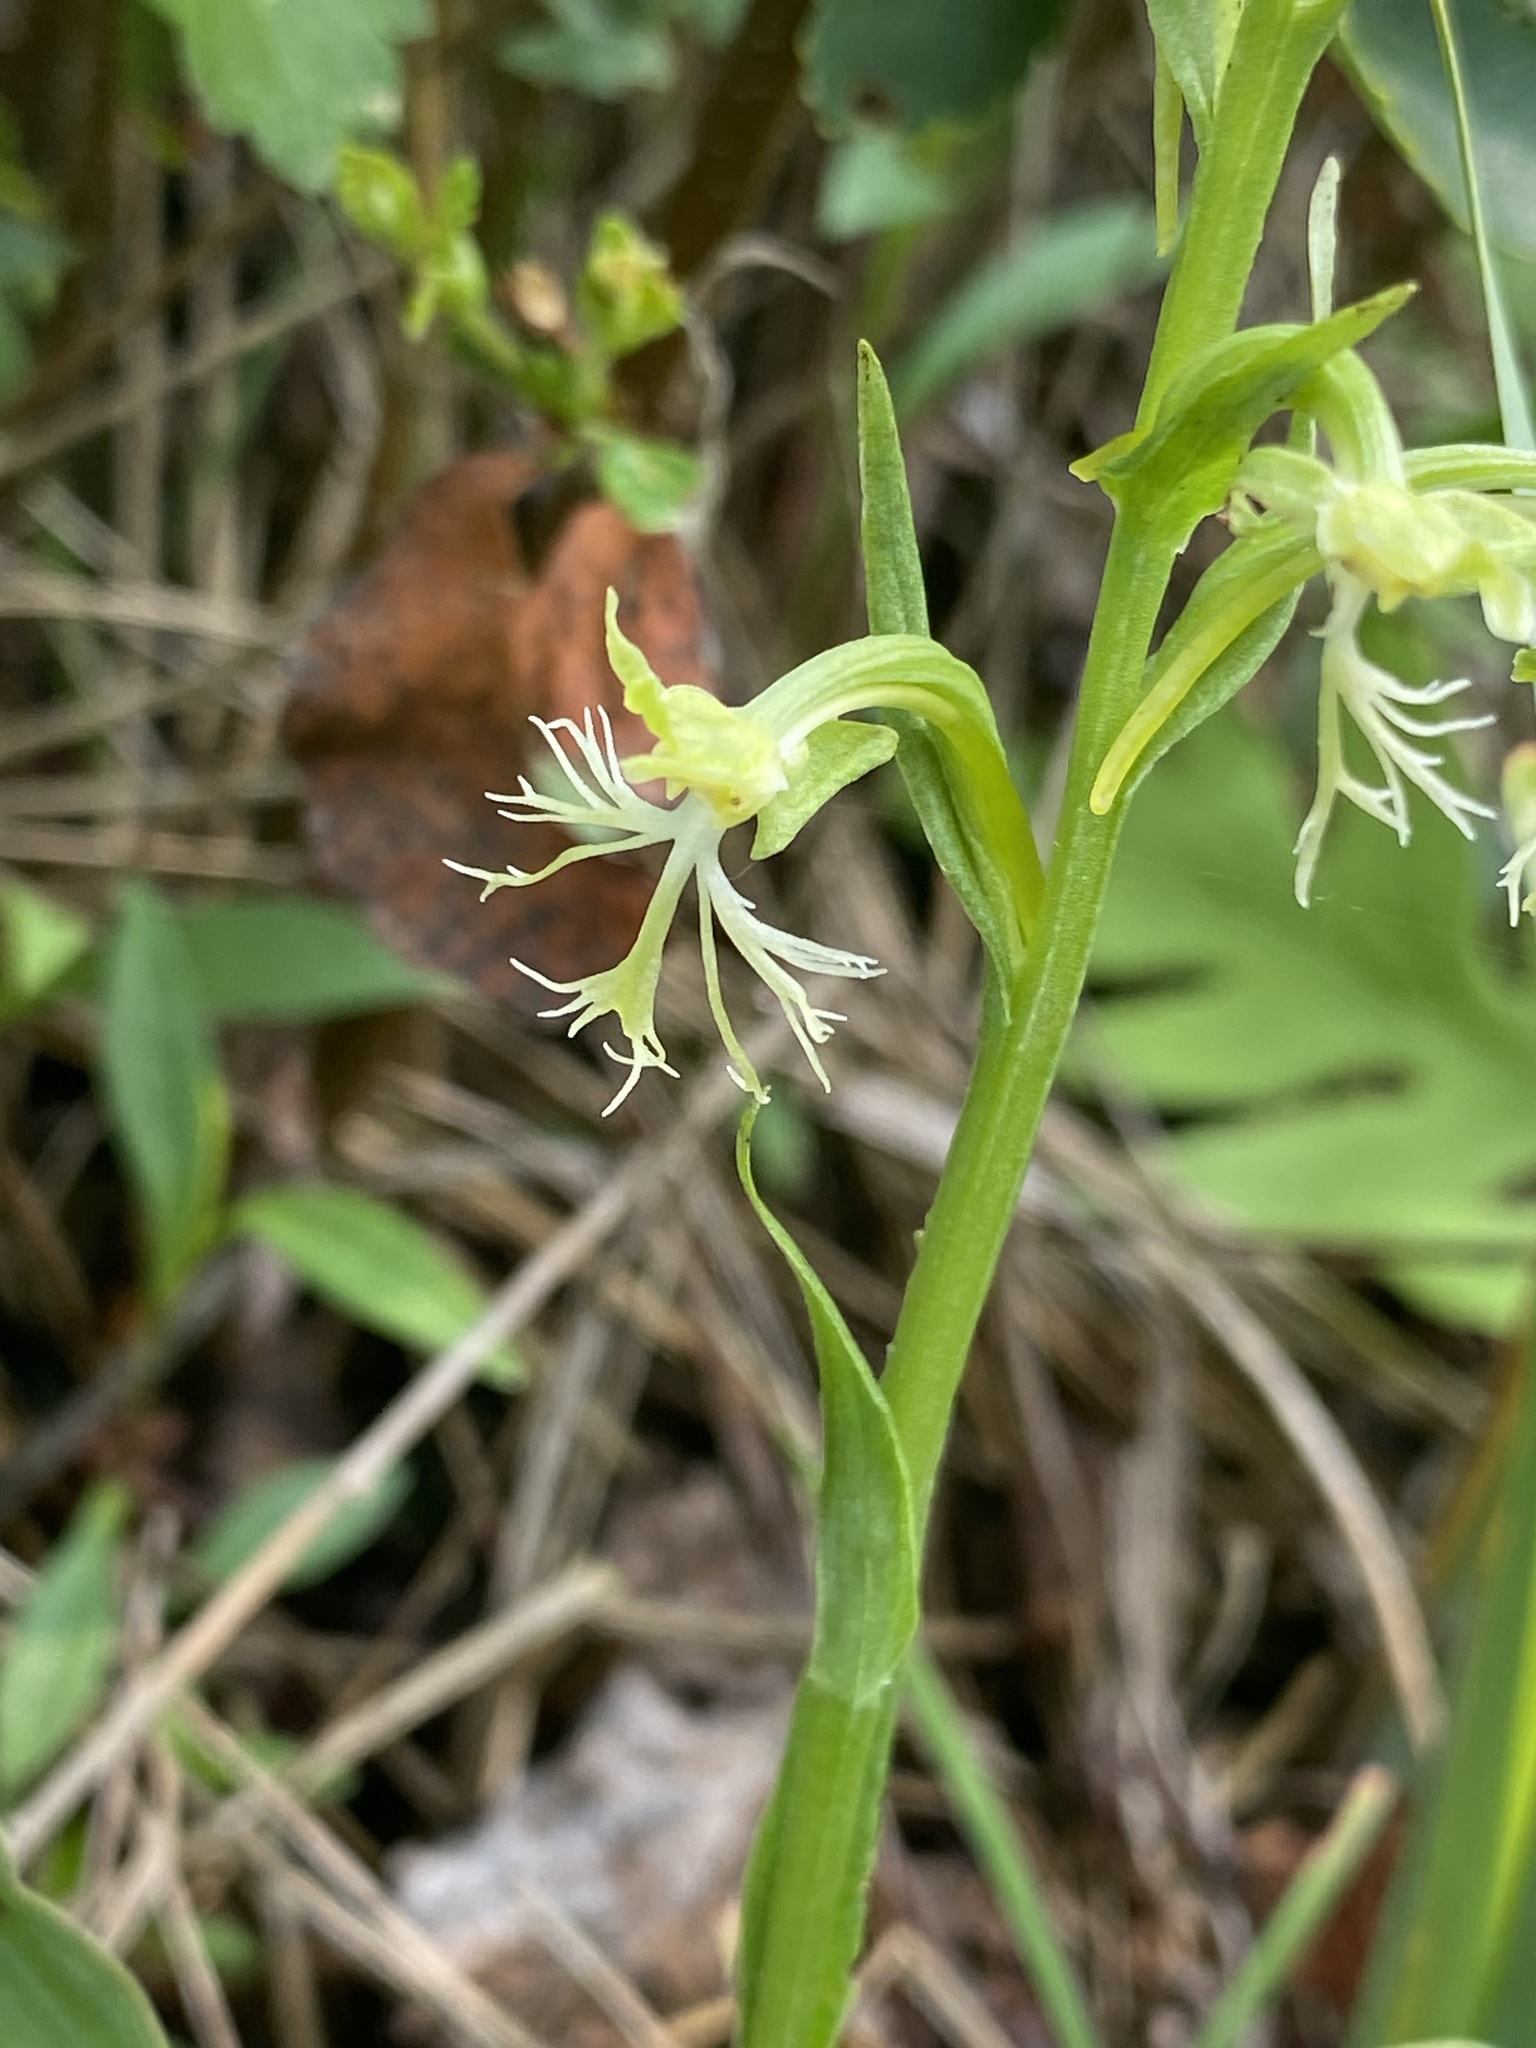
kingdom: Plantae
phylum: Tracheophyta
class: Liliopsida
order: Asparagales
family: Orchidaceae
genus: Platanthera
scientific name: Platanthera lacera
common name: Green fringed orchid
